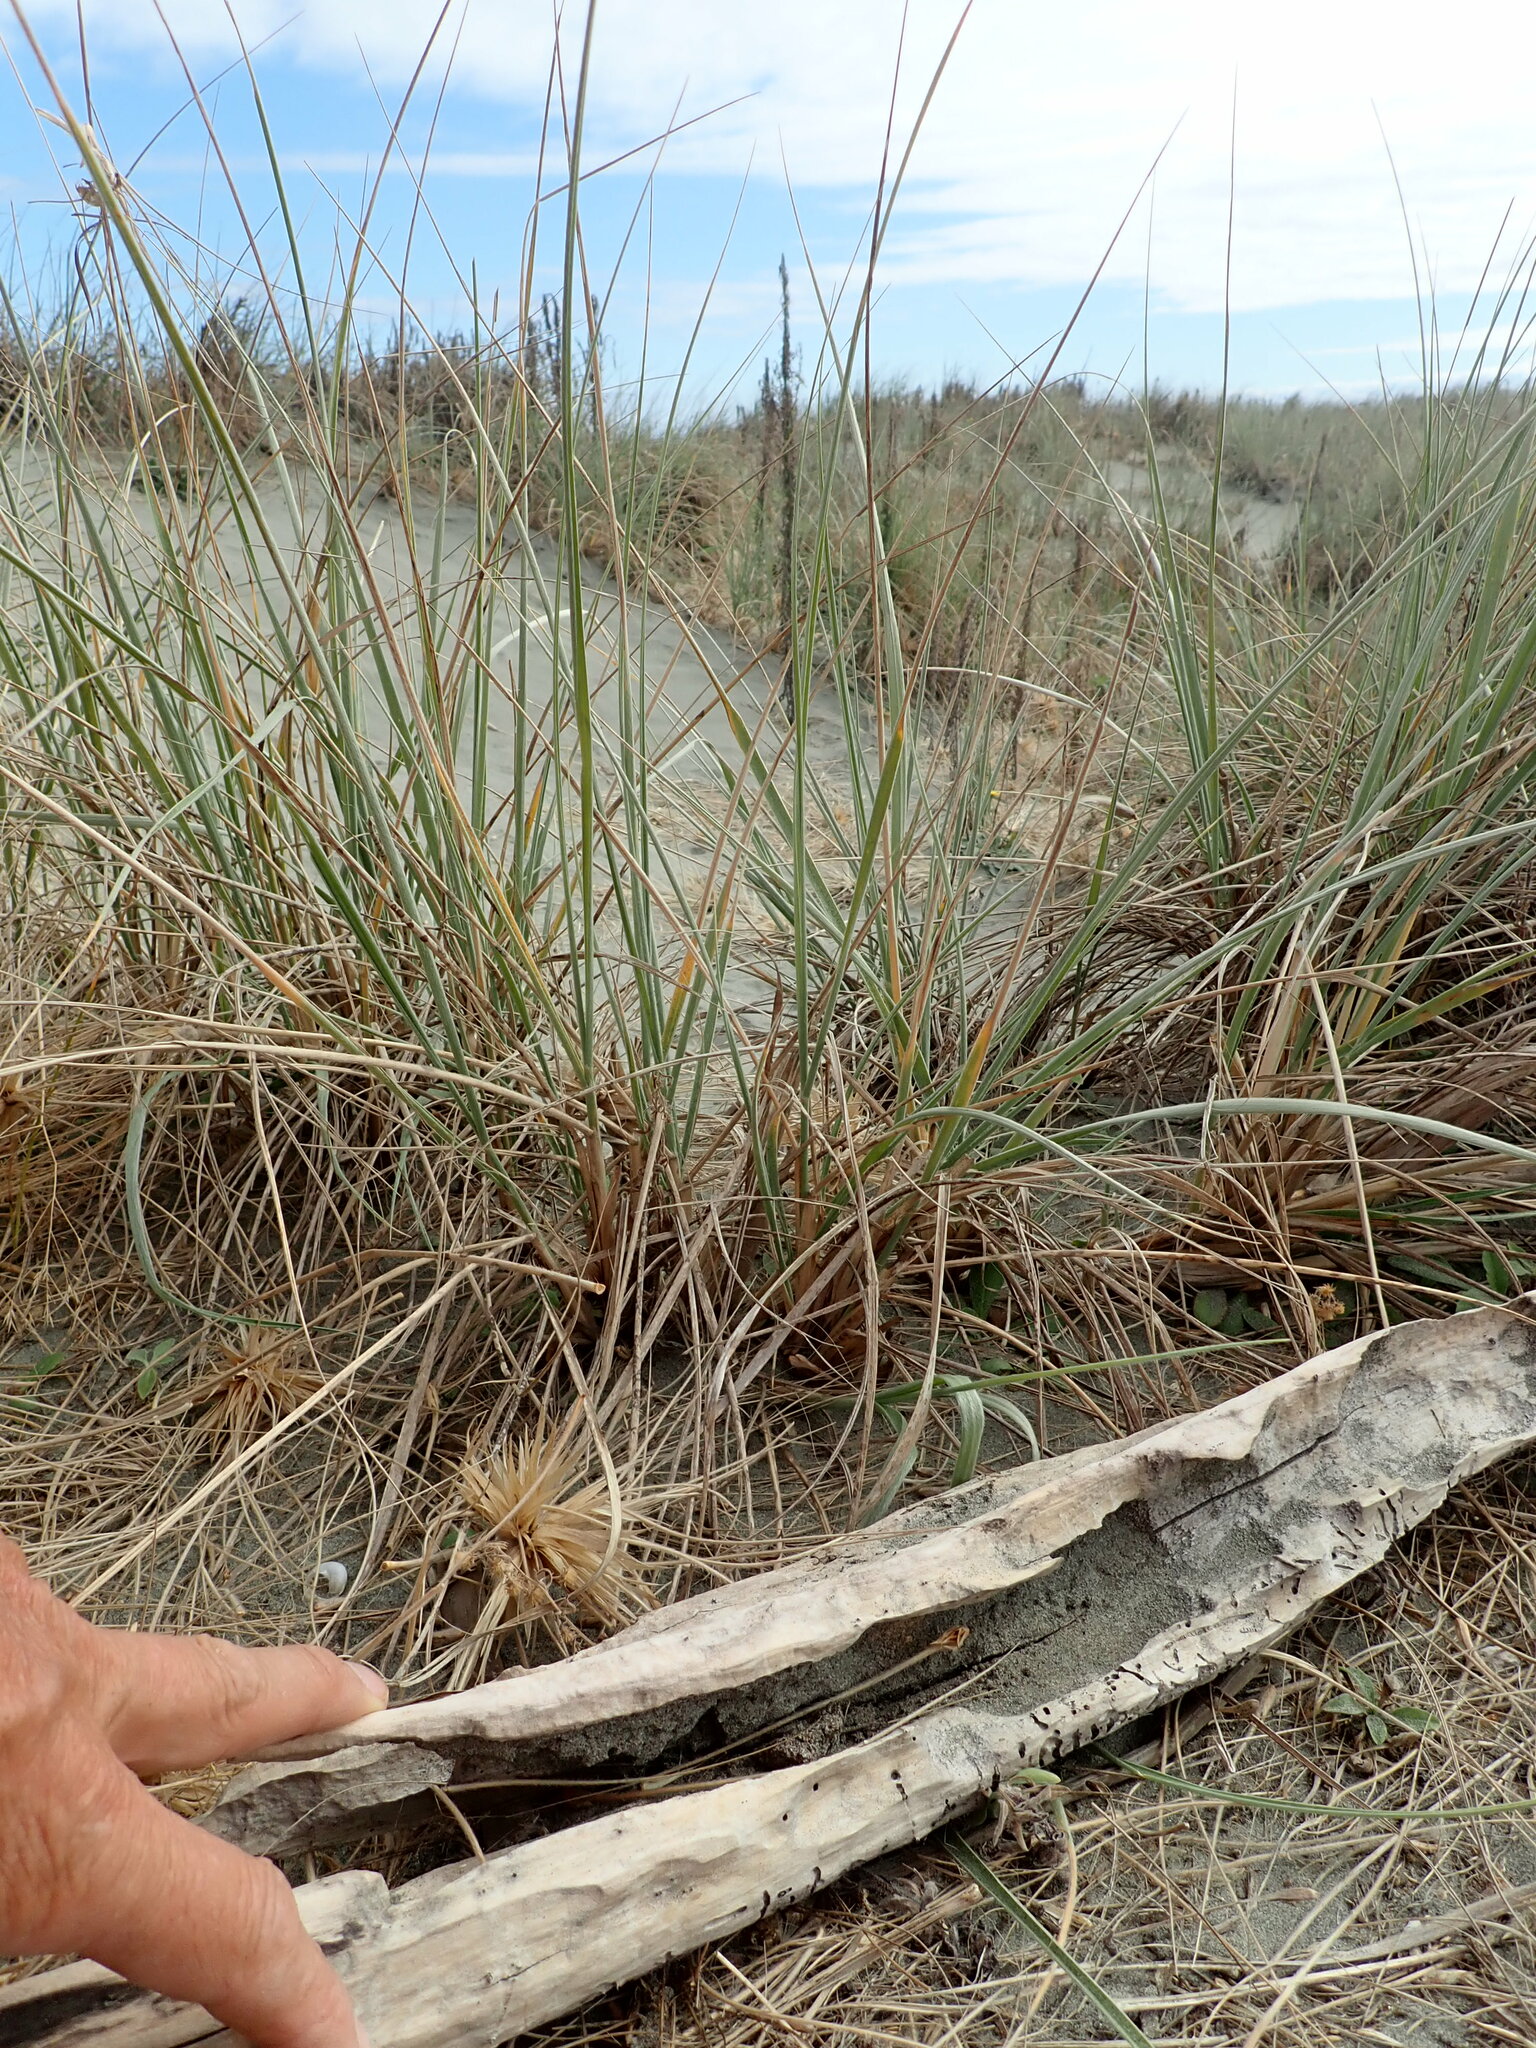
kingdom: Animalia
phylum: Arthropoda
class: Arachnida
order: Araneae
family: Theridiidae
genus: Latrodectus
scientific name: Latrodectus katipo
